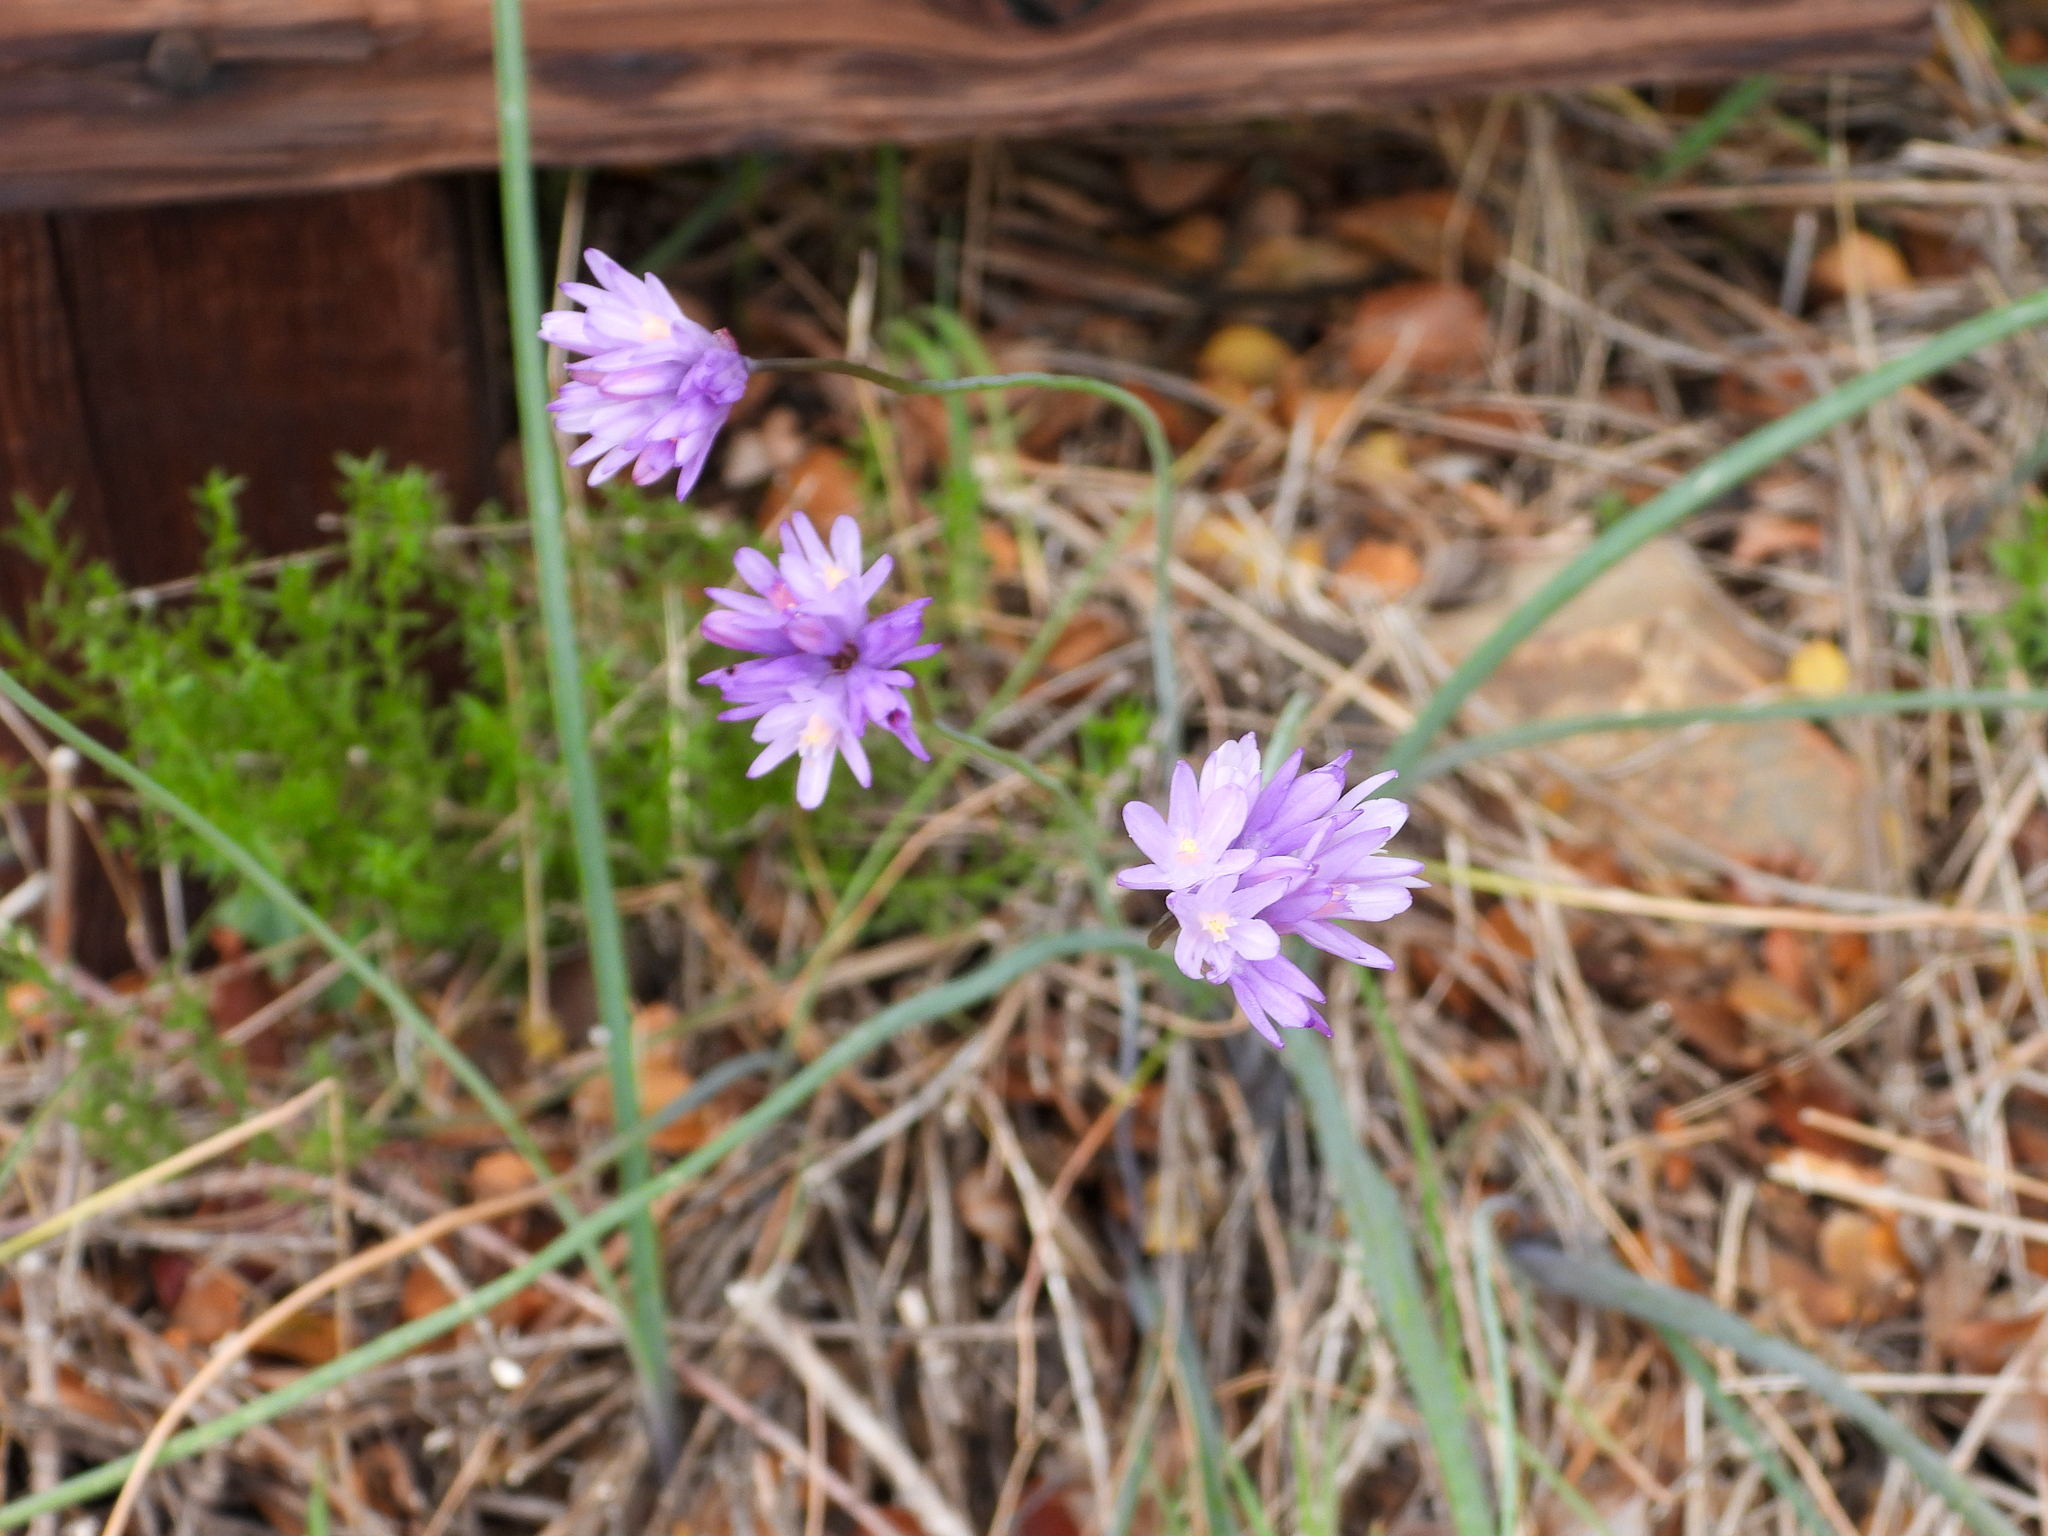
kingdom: Plantae
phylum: Tracheophyta
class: Liliopsida
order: Asparagales
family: Asparagaceae
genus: Dipterostemon
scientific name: Dipterostemon capitatus
